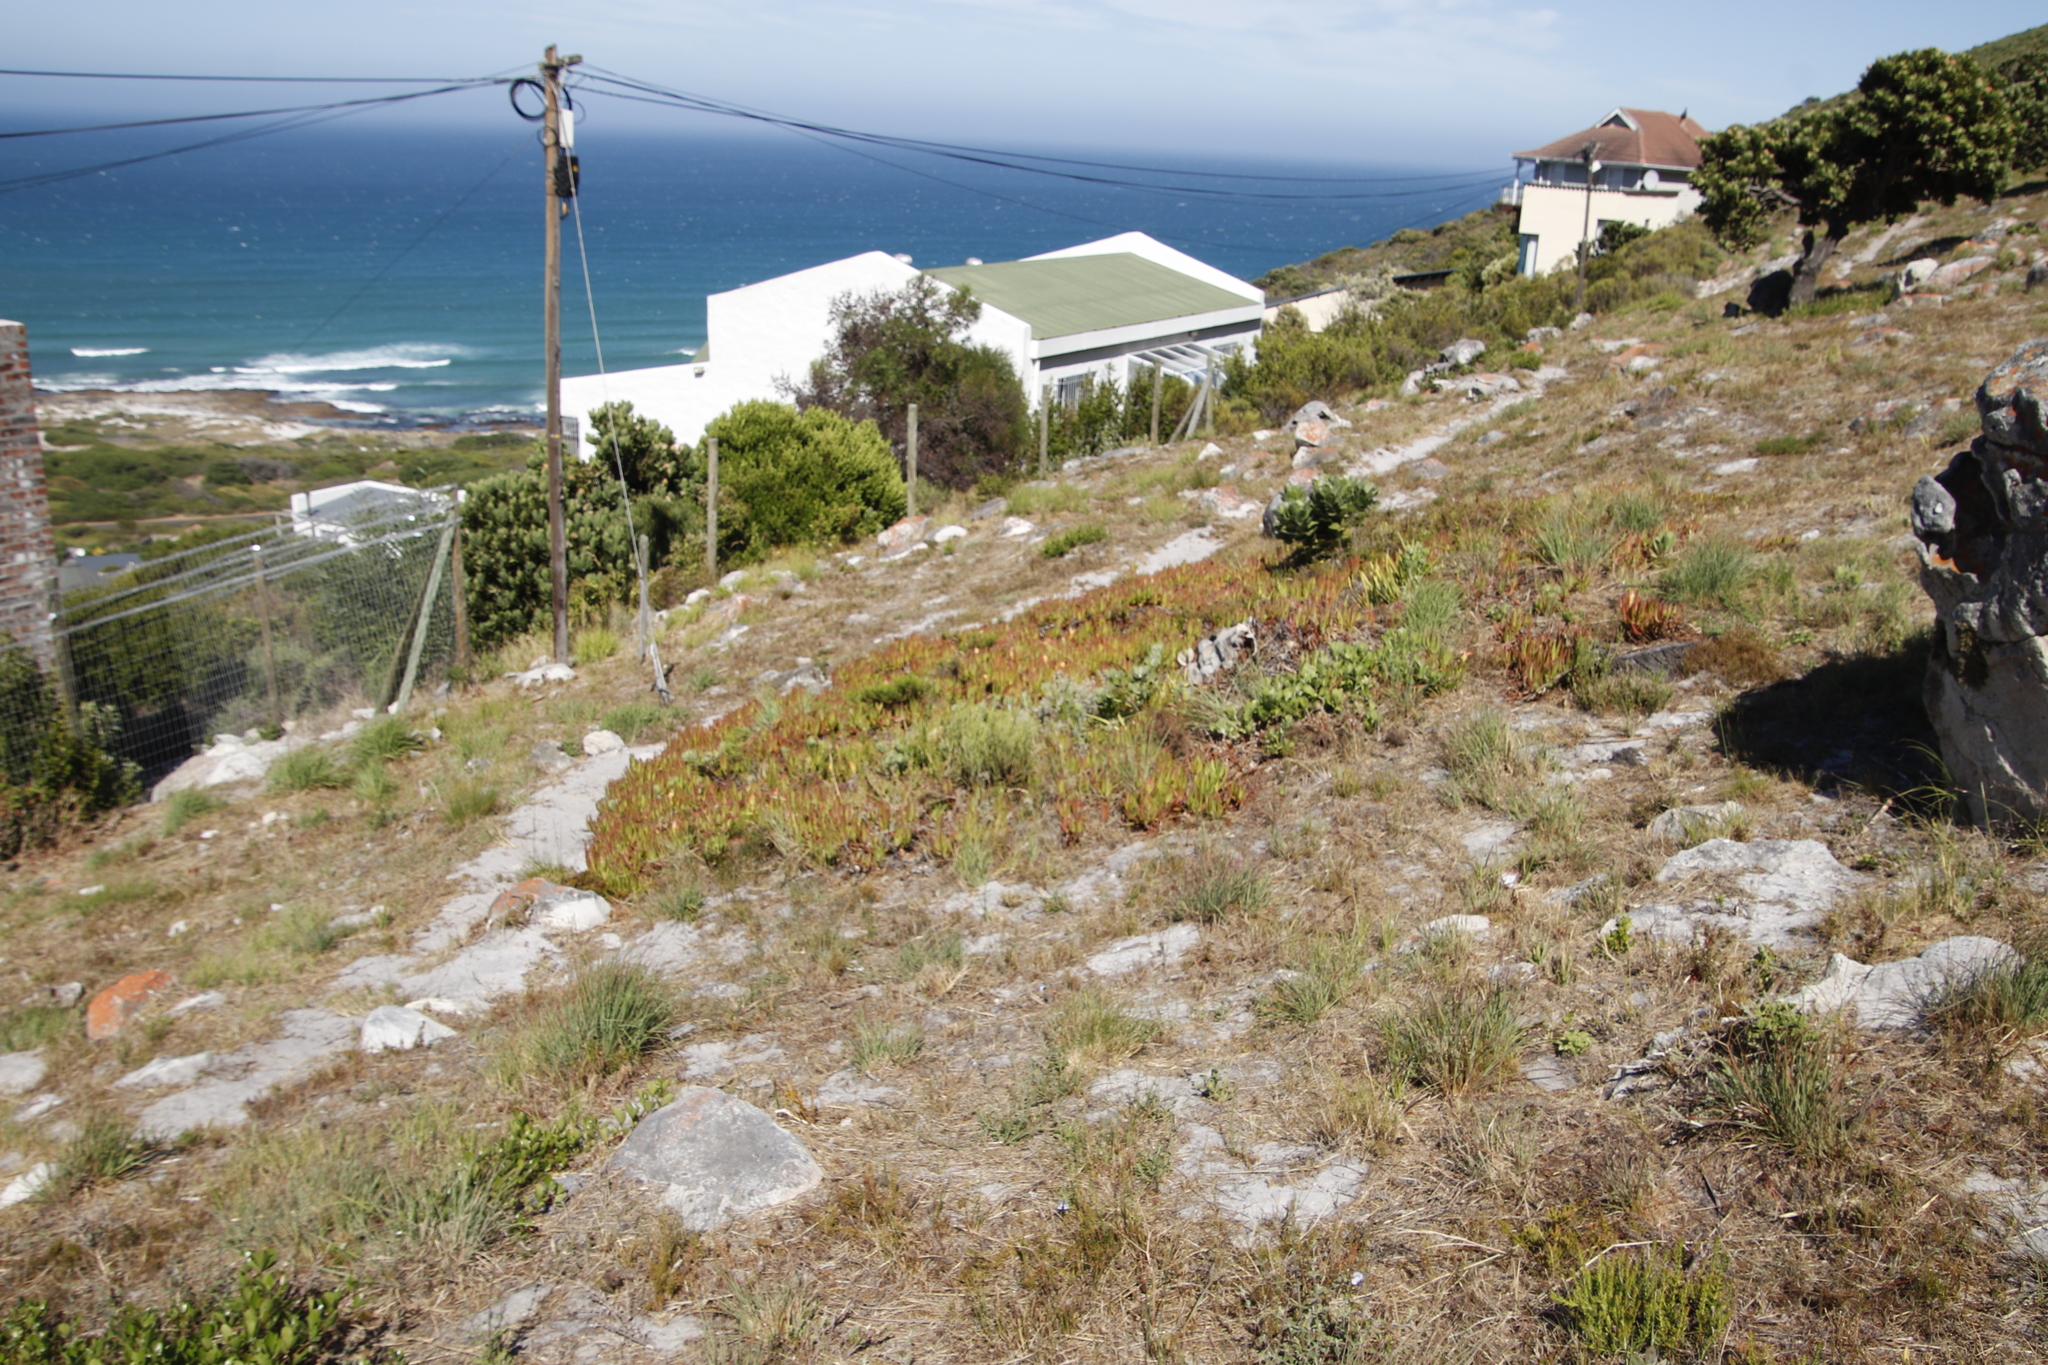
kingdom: Plantae
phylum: Tracheophyta
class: Magnoliopsida
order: Caryophyllales
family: Aizoaceae
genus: Carpobrotus
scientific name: Carpobrotus edulis
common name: Hottentot-fig
